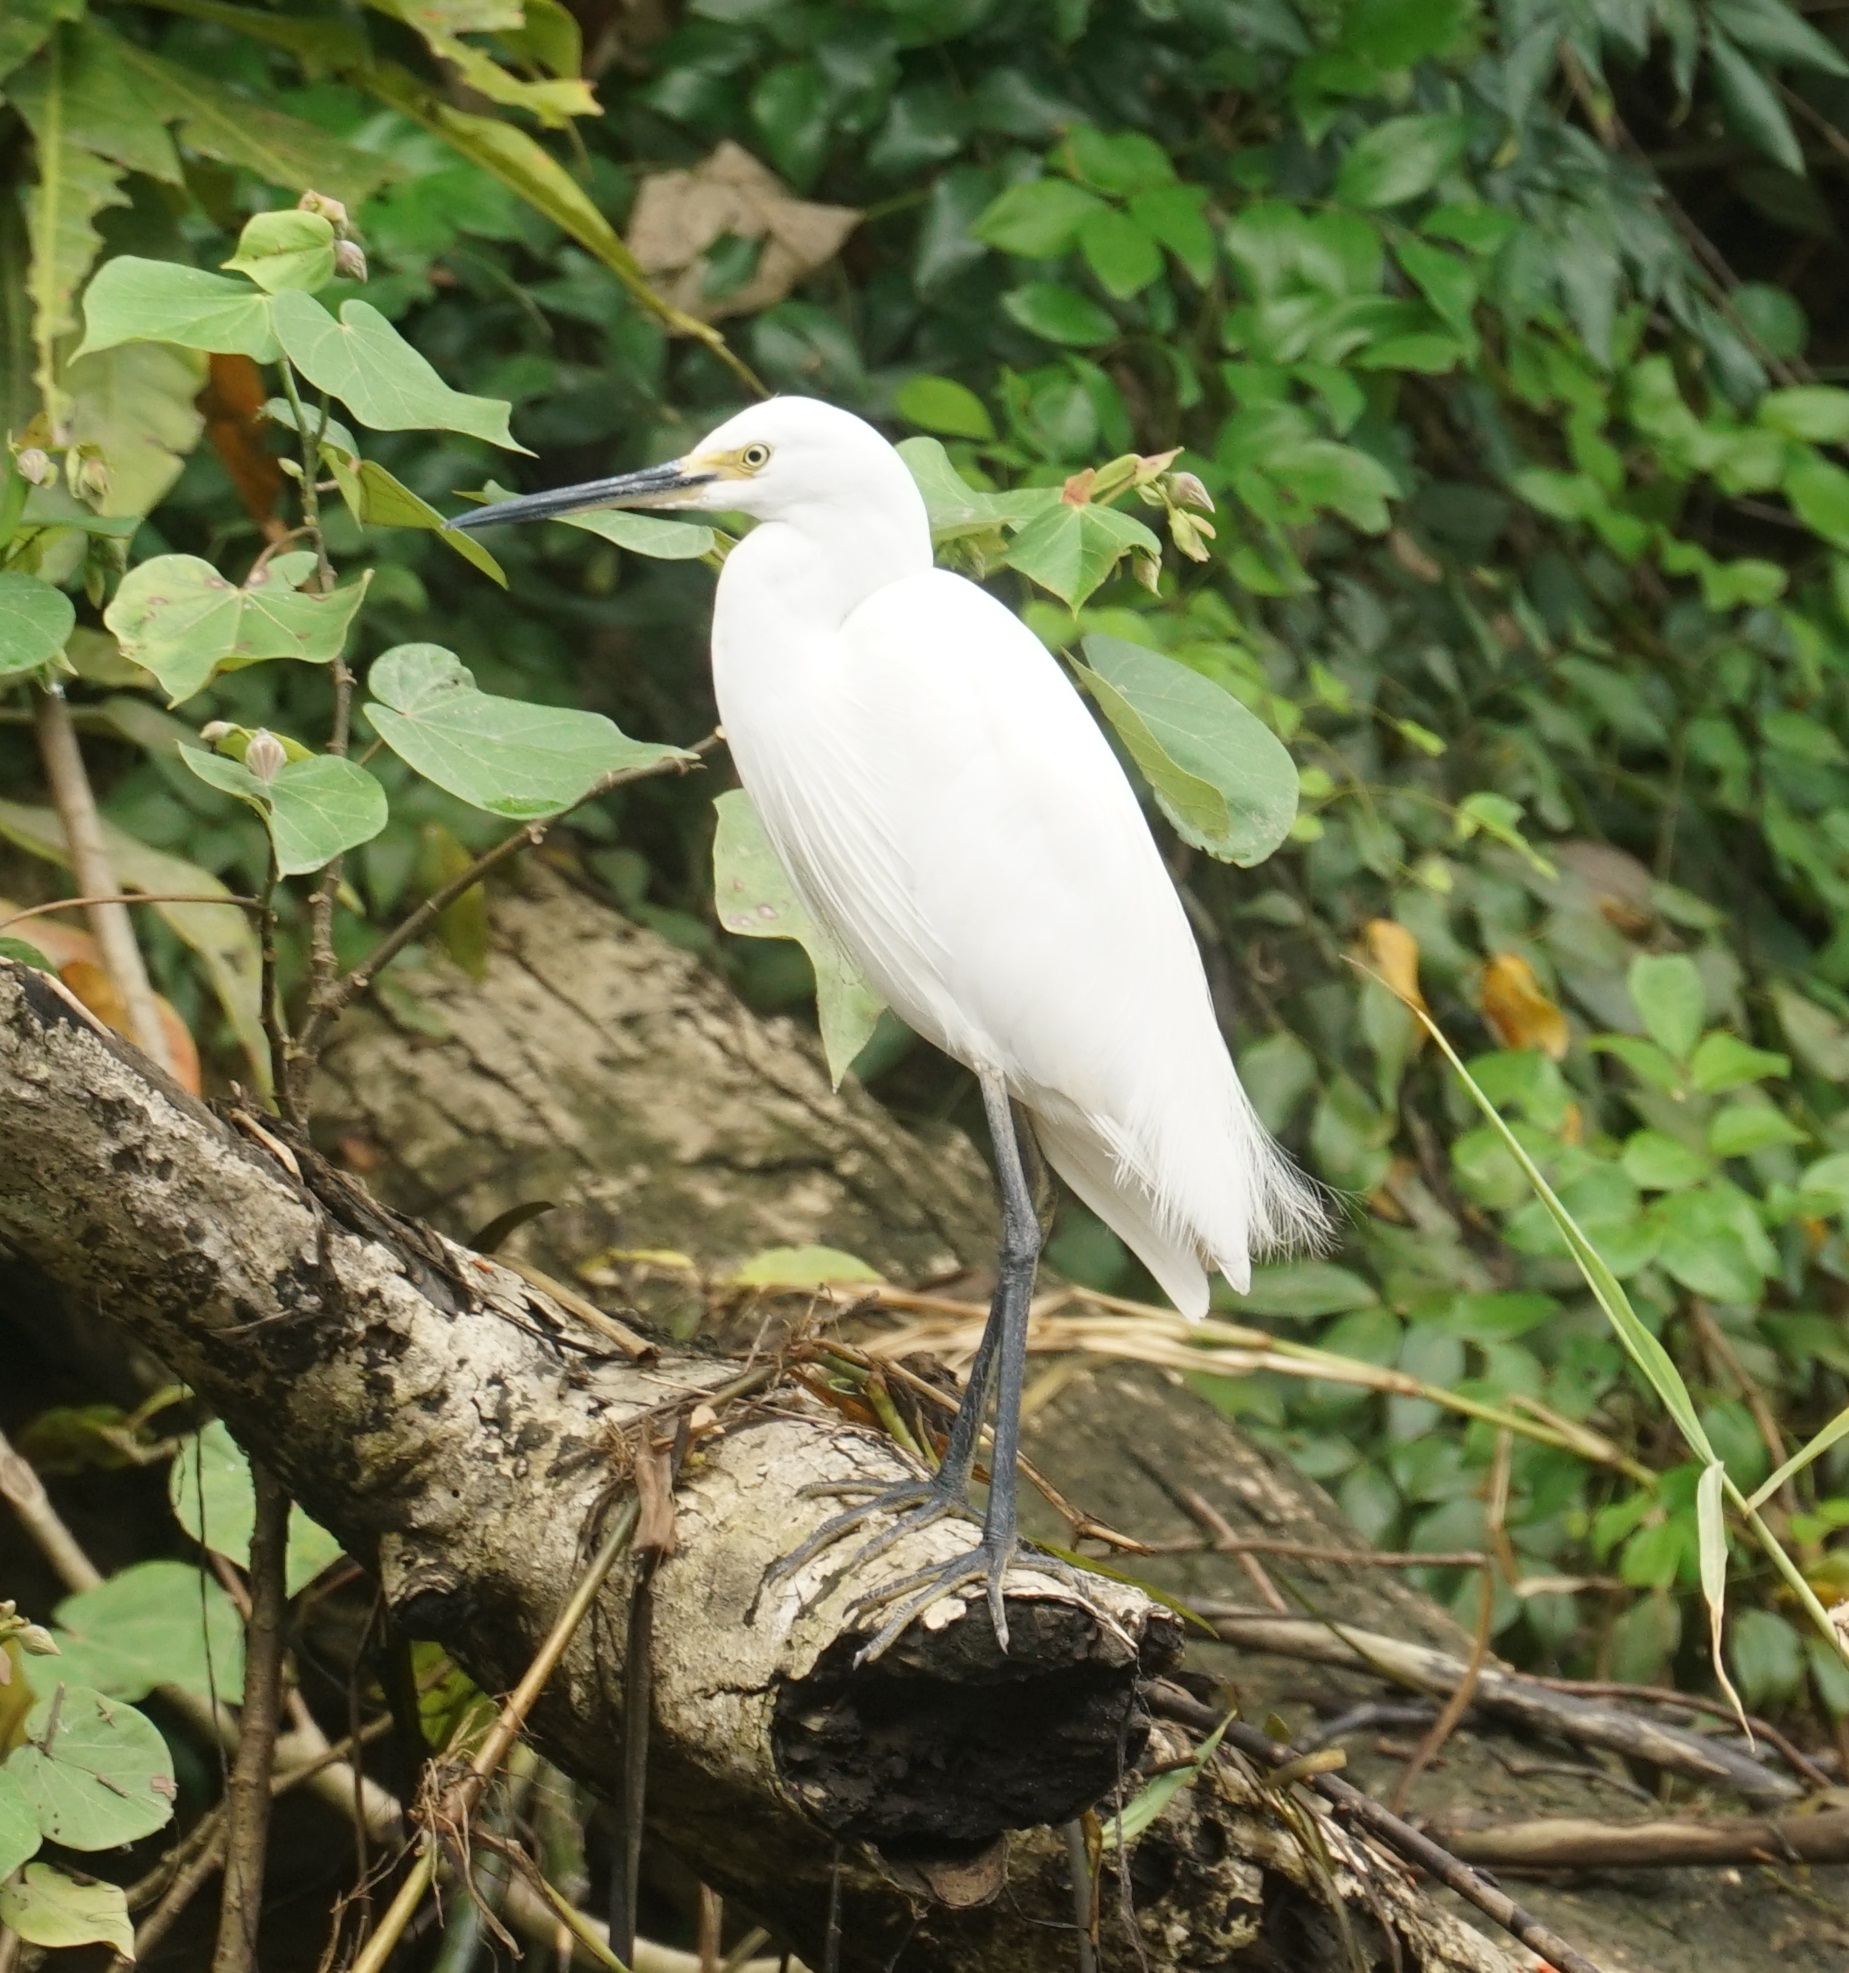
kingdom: Animalia
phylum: Chordata
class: Aves
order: Pelecaniformes
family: Ardeidae
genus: Egretta
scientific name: Egretta garzetta
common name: Little egret
